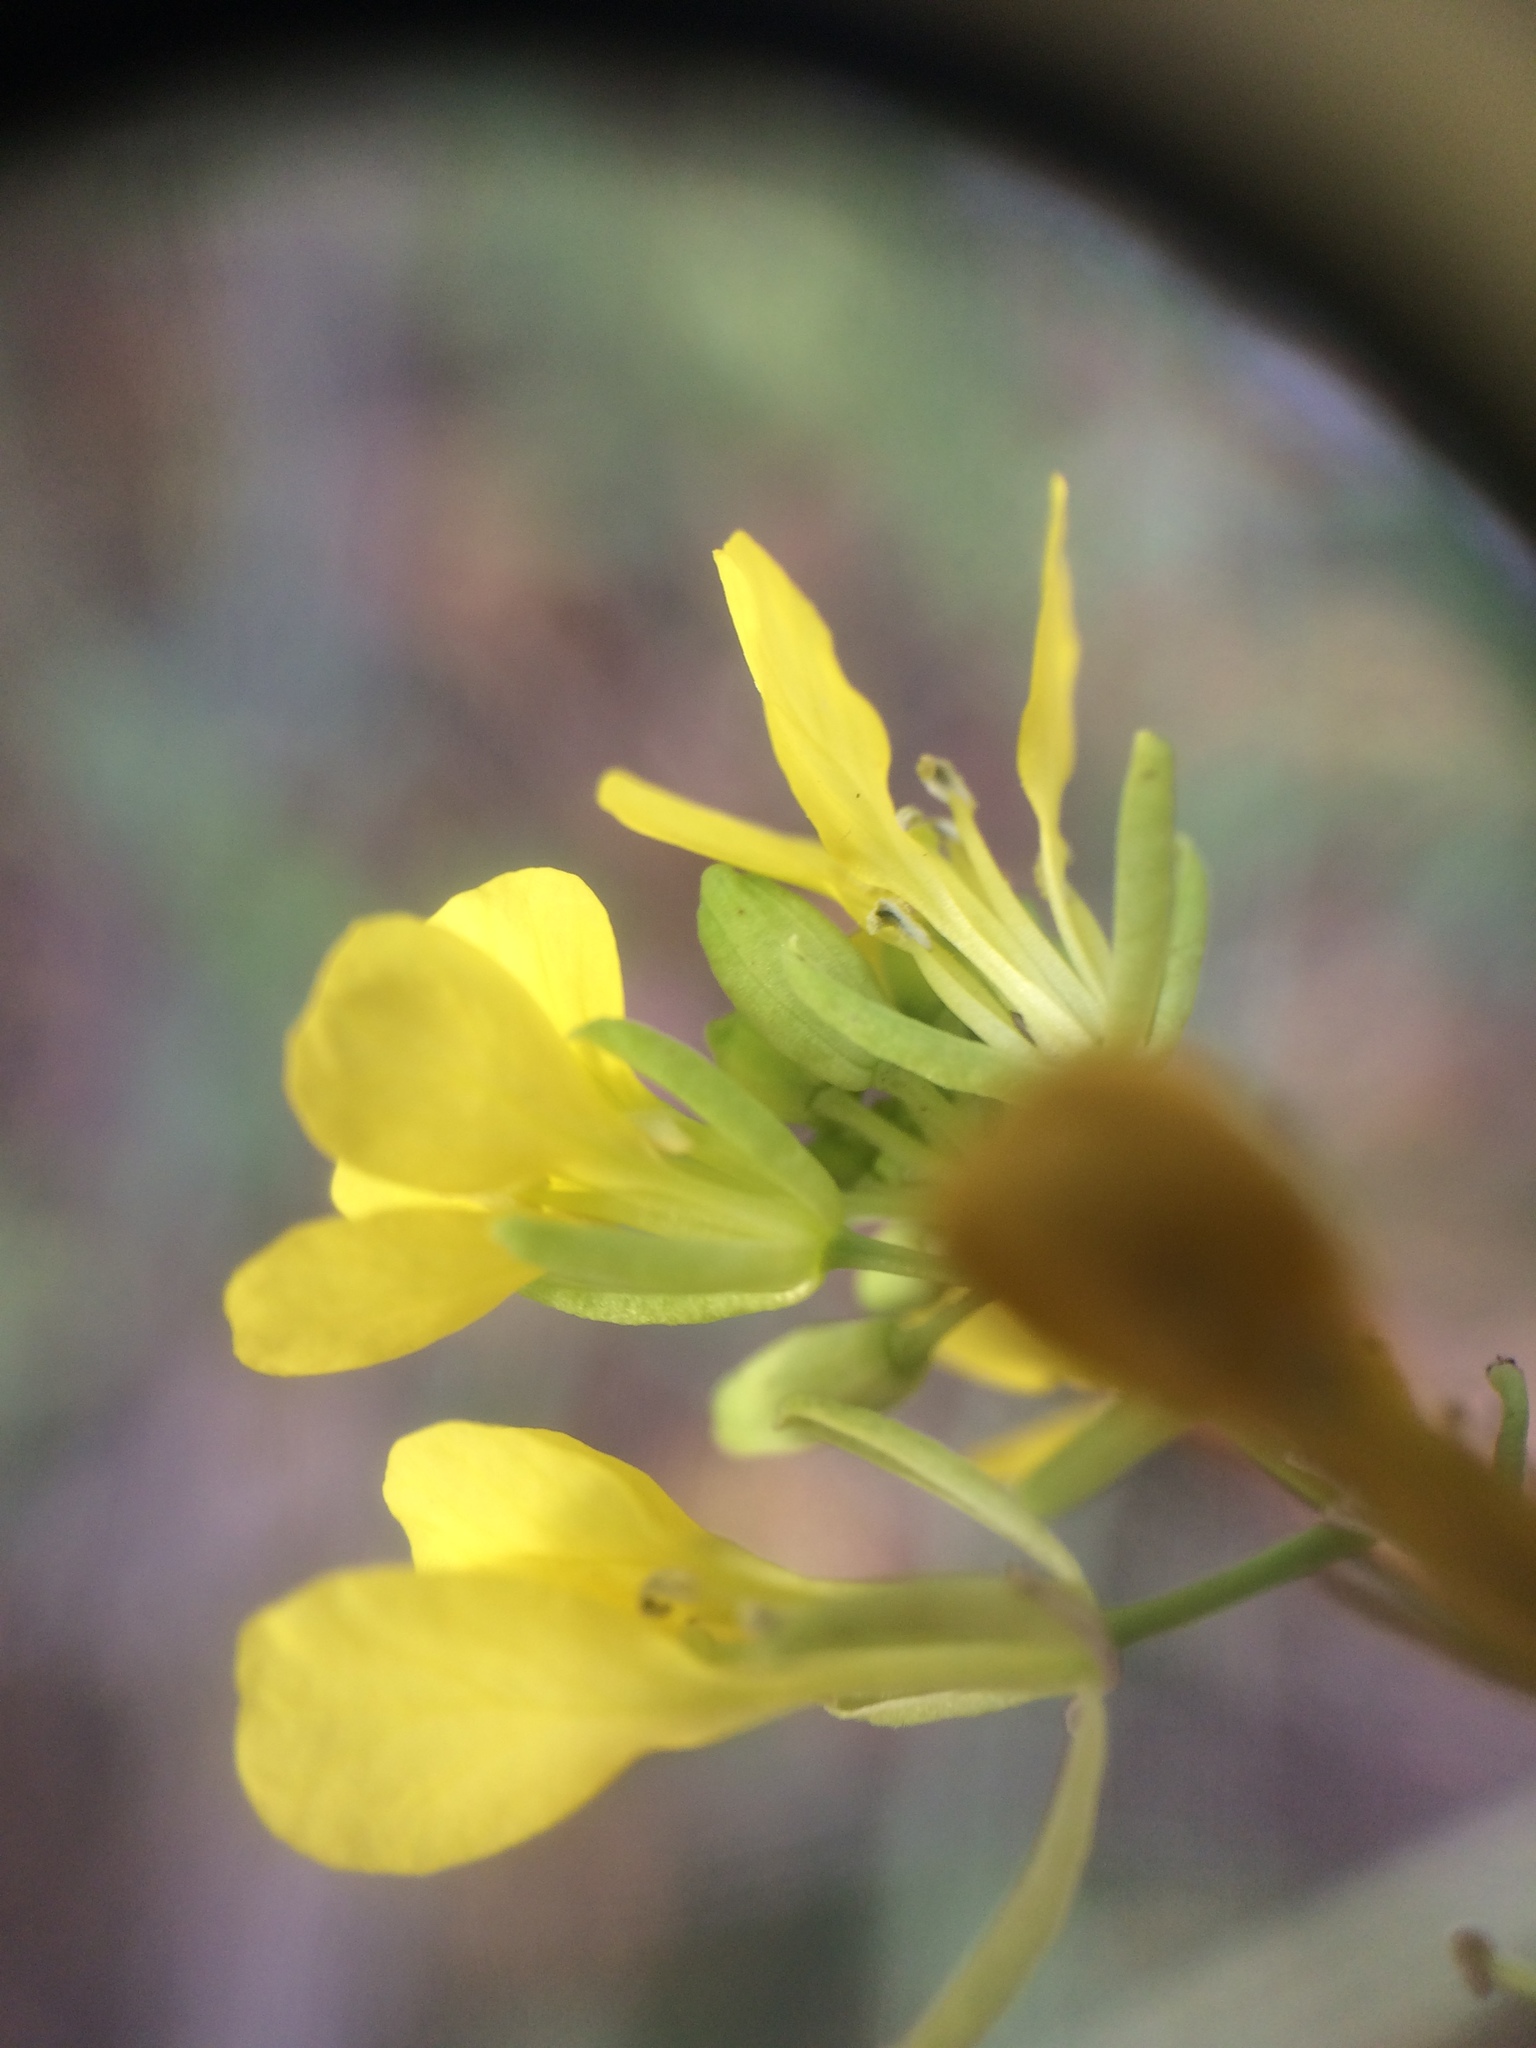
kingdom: Plantae
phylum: Tracheophyta
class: Magnoliopsida
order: Brassicales
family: Brassicaceae
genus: Brassica
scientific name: Brassica nigra
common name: Black mustard
